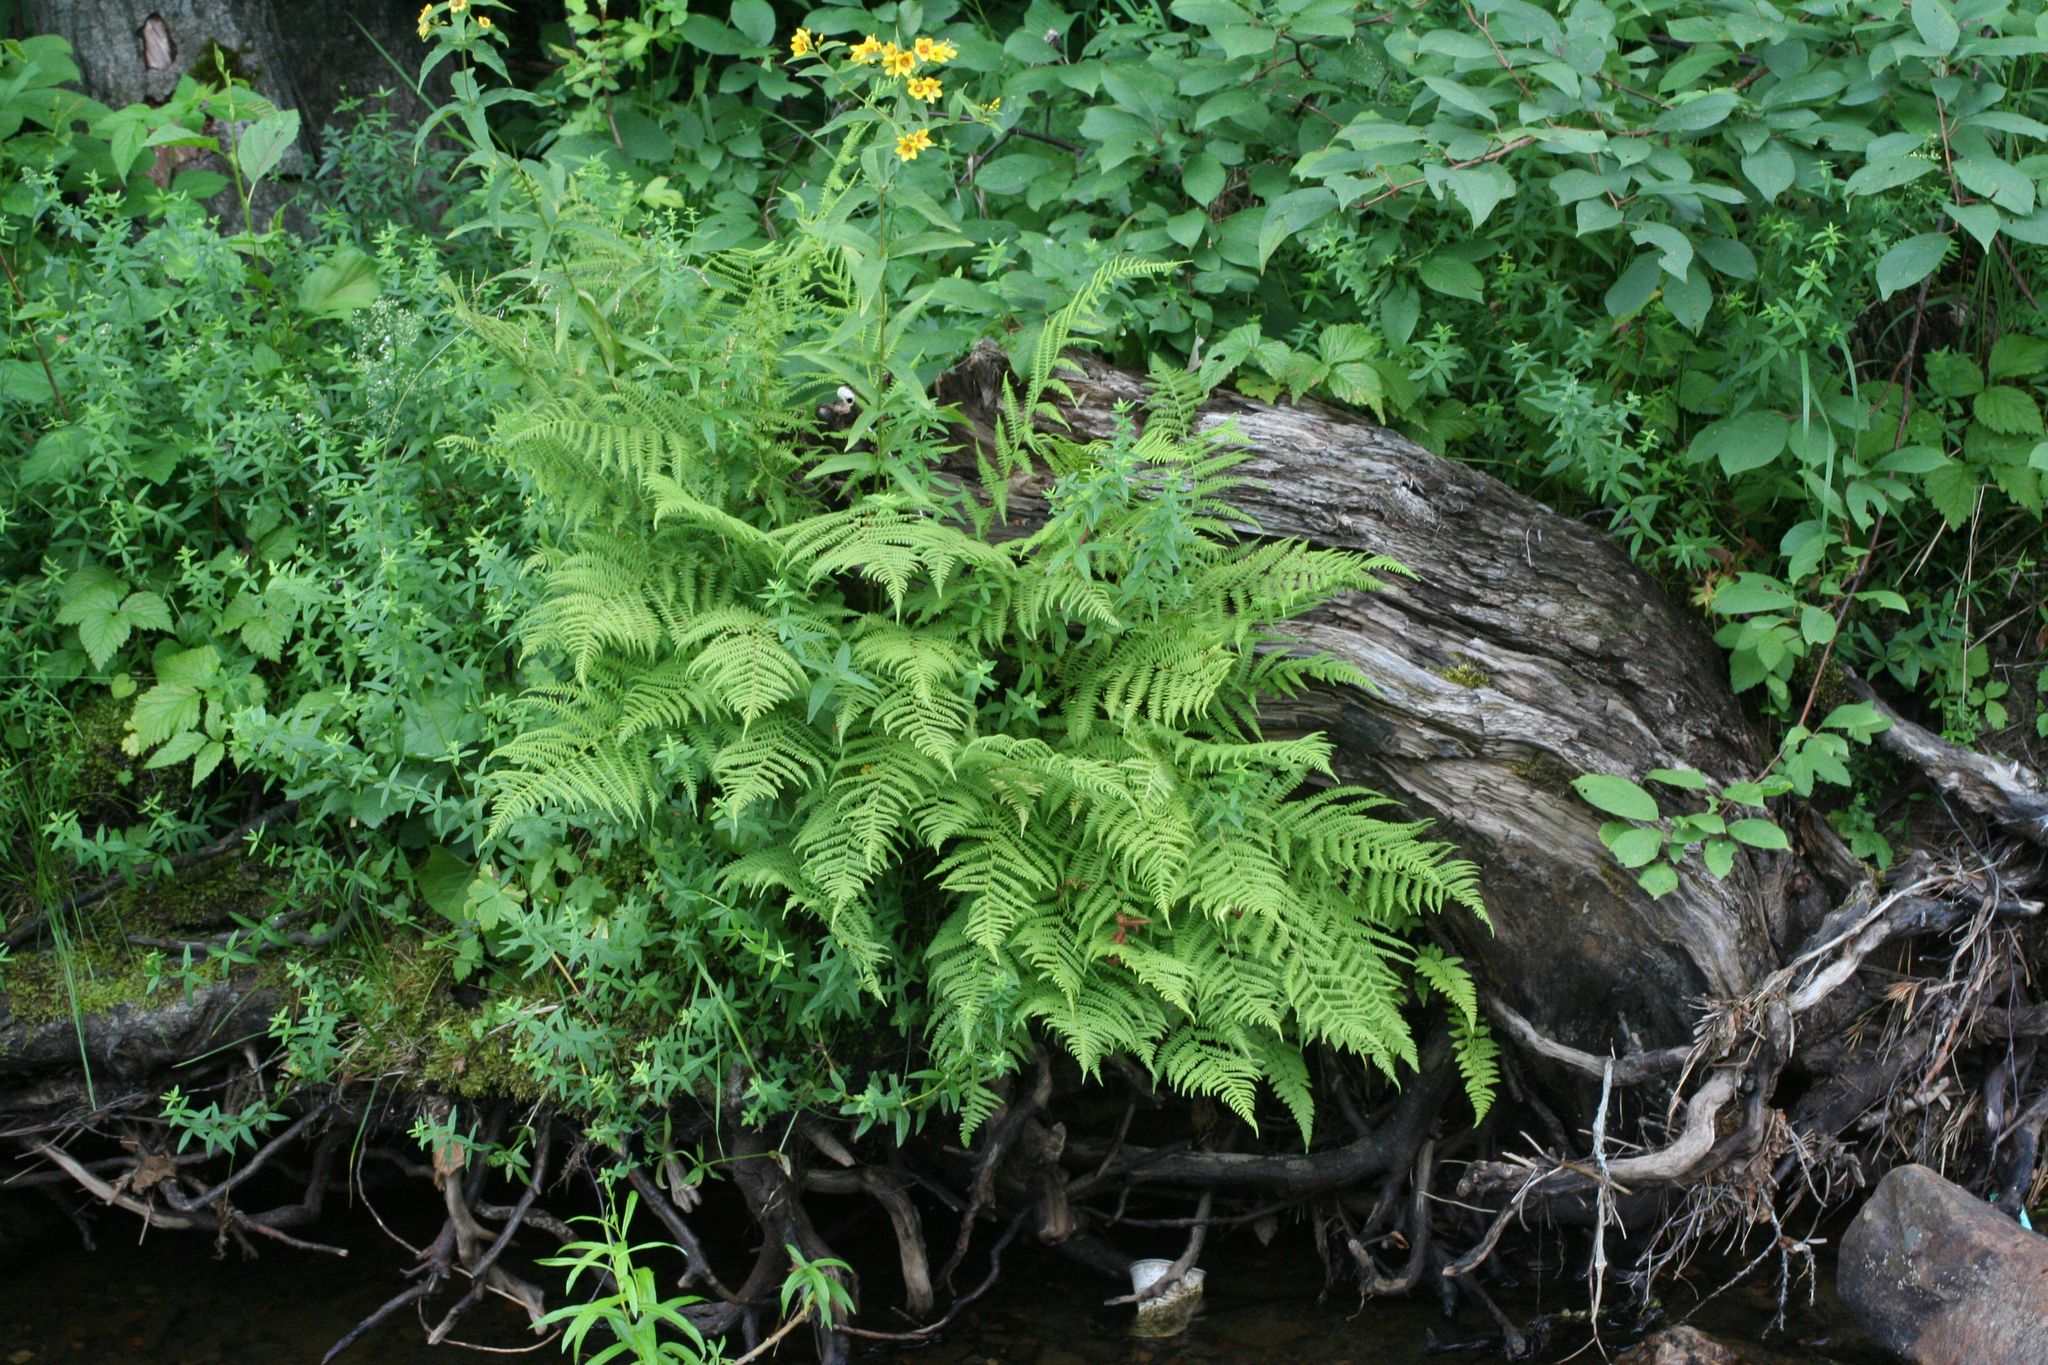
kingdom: Plantae
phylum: Tracheophyta
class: Polypodiopsida
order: Polypodiales
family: Athyriaceae
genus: Athyrium
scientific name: Athyrium filix-femina
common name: Lady fern
